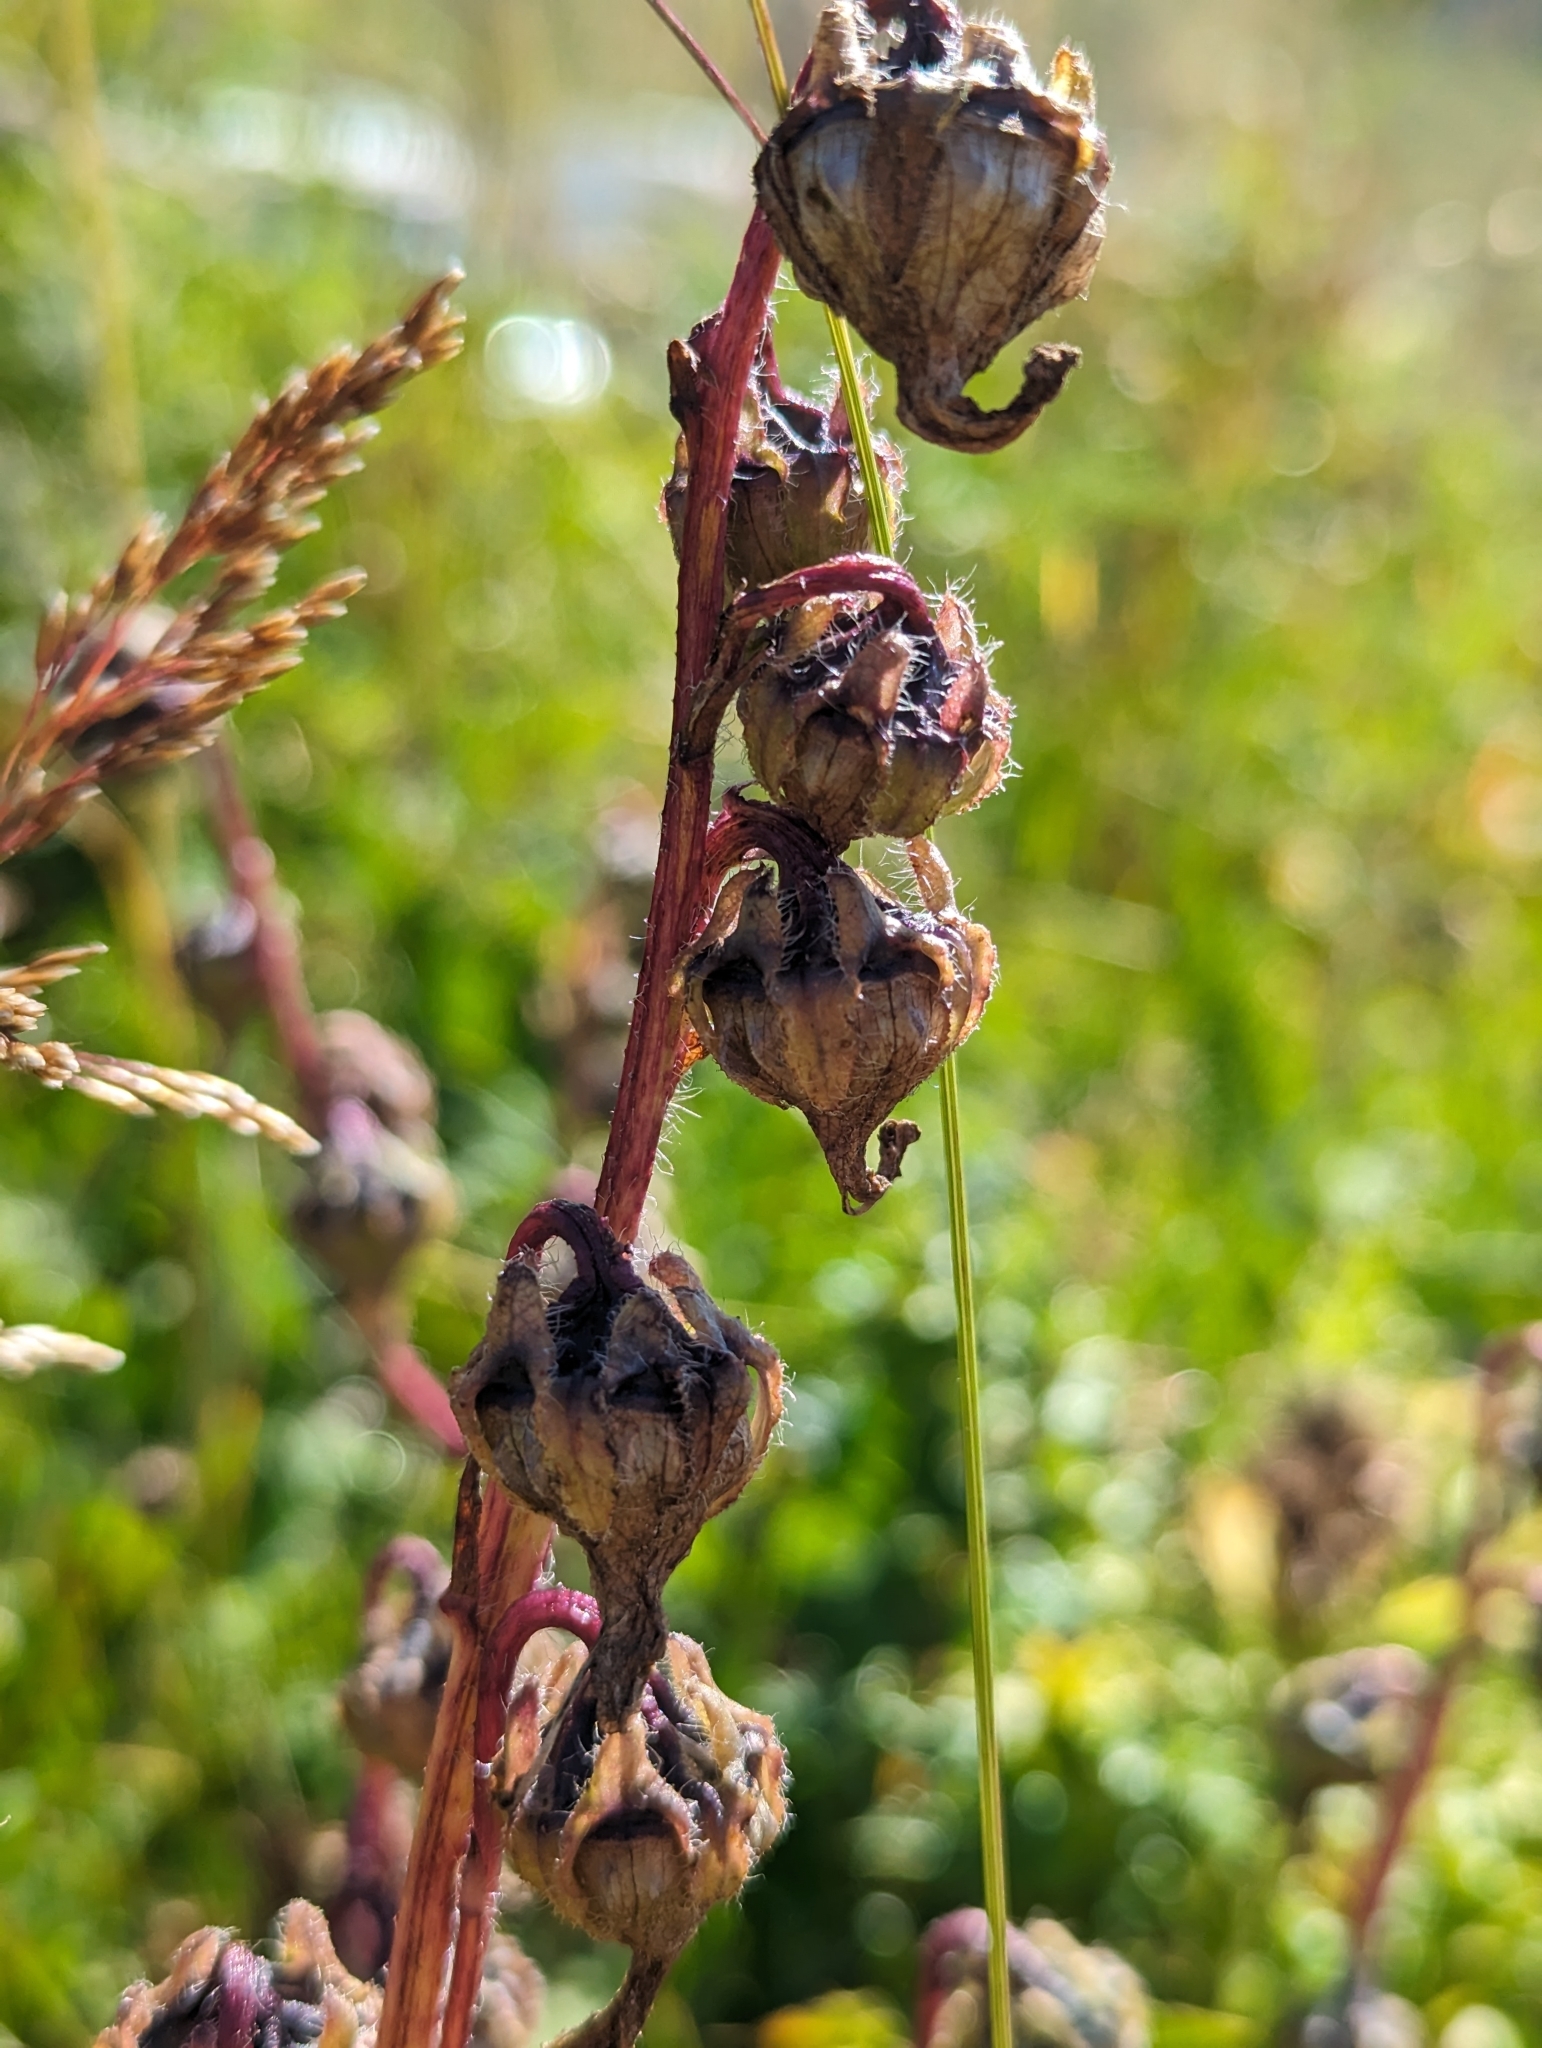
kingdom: Plantae
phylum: Tracheophyta
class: Magnoliopsida
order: Asterales
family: Campanulaceae
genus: Campanula
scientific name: Campanula barbata
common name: Bearded bellflower
